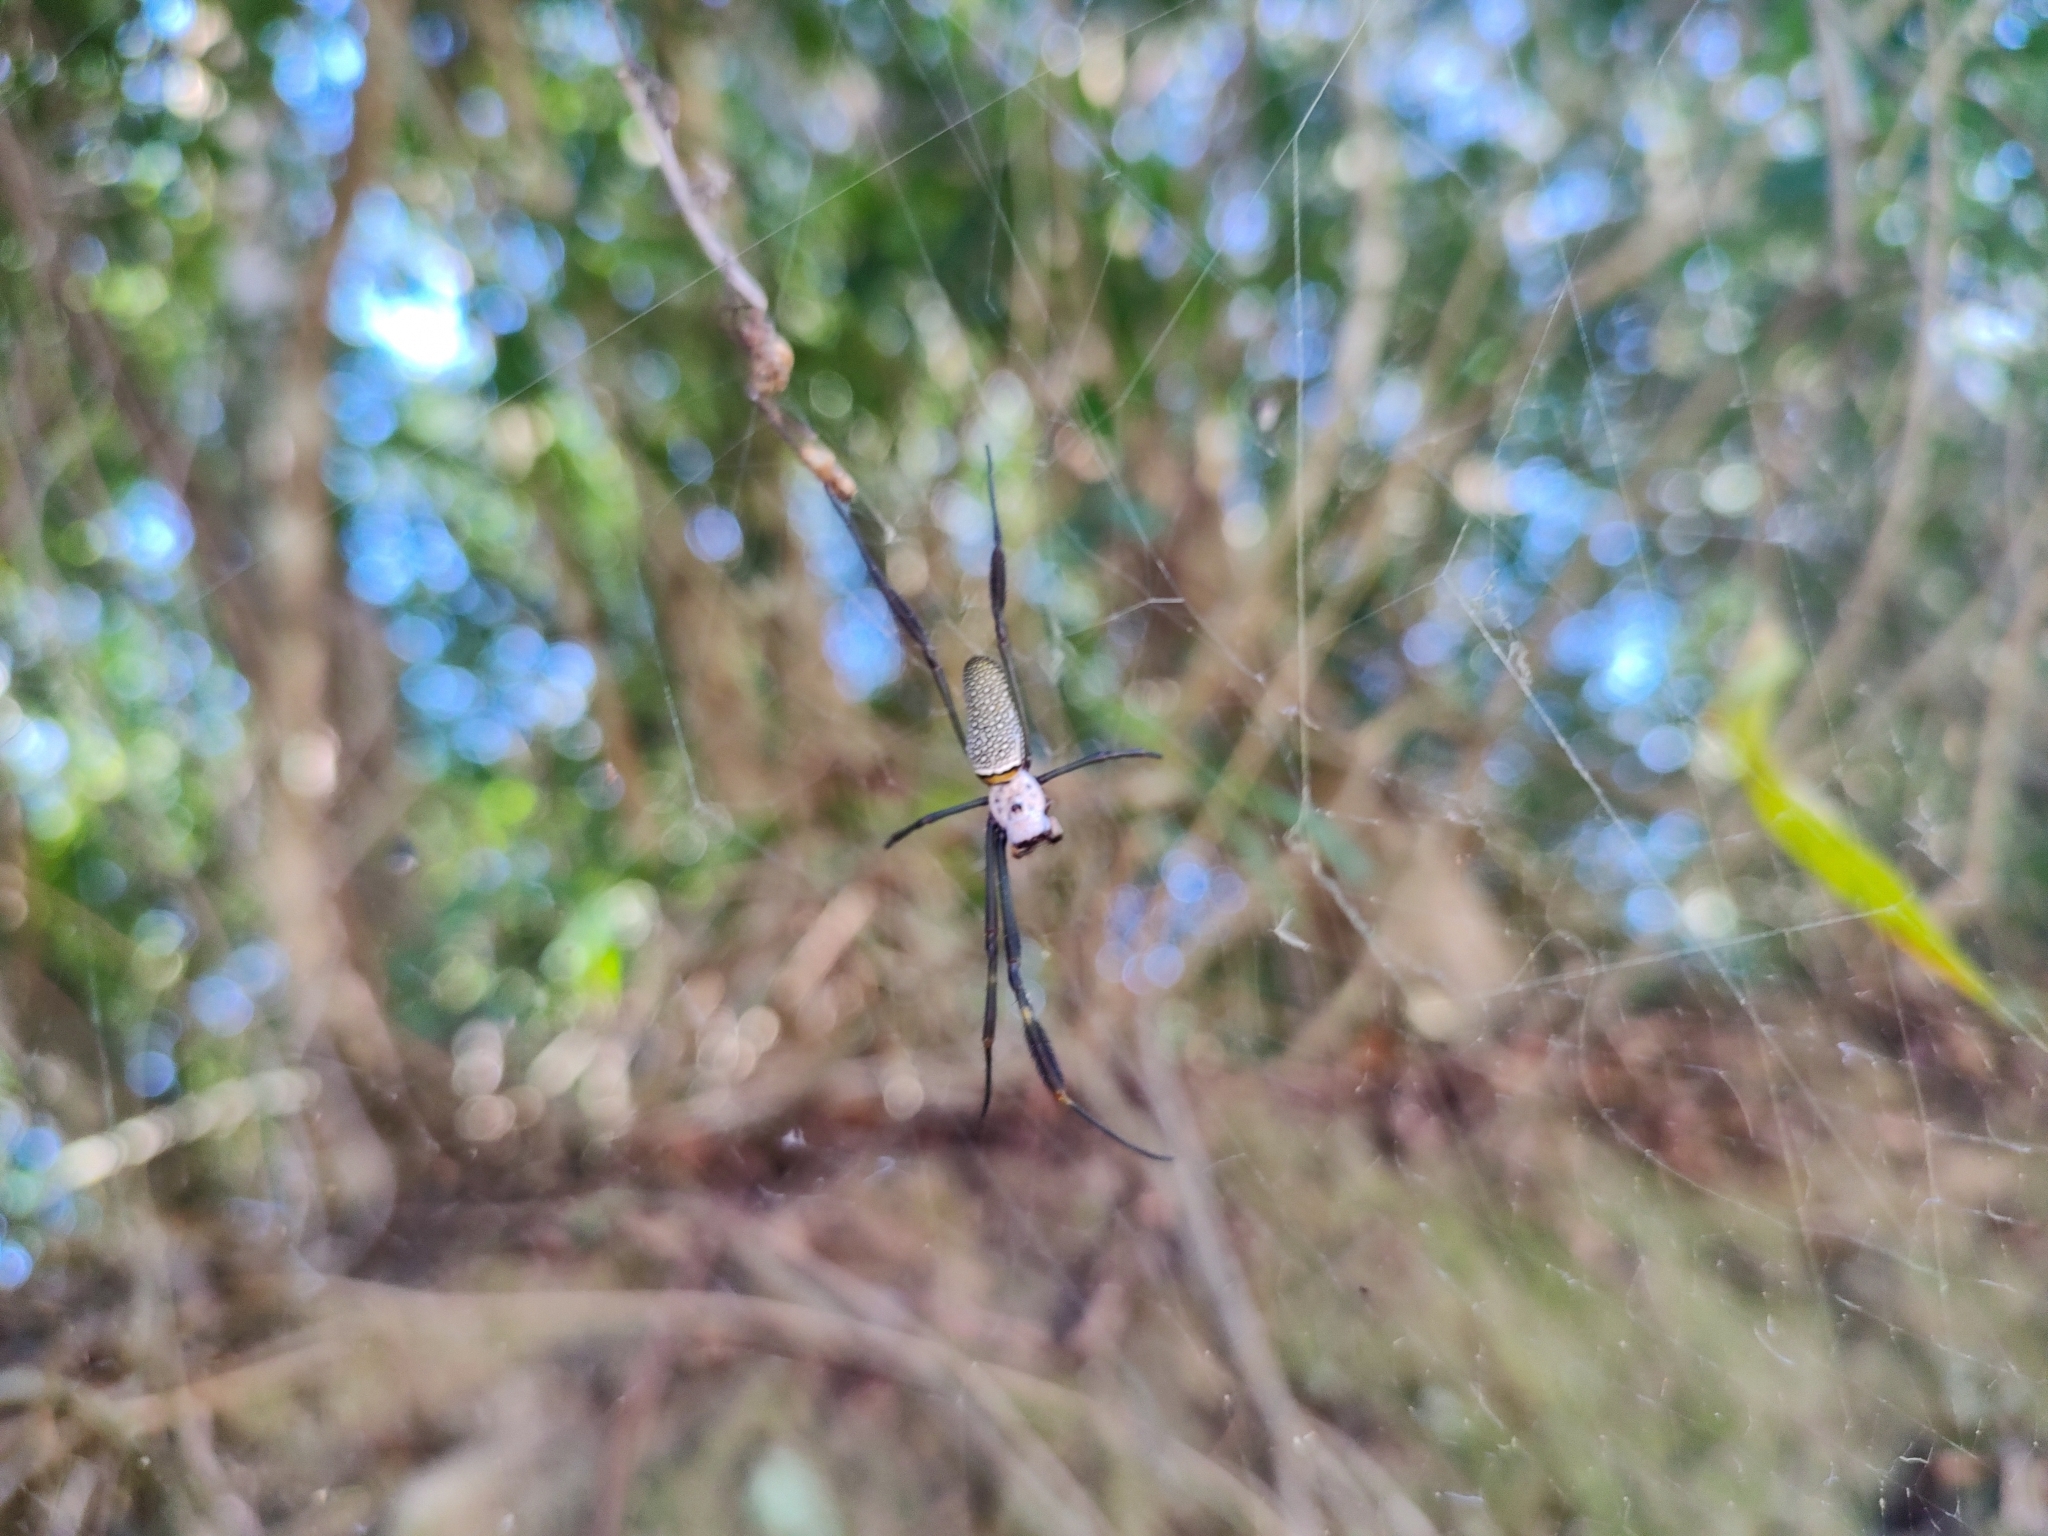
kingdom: Animalia
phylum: Arthropoda
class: Arachnida
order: Araneae
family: Araneidae
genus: Trichonephila
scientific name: Trichonephila clavipes
